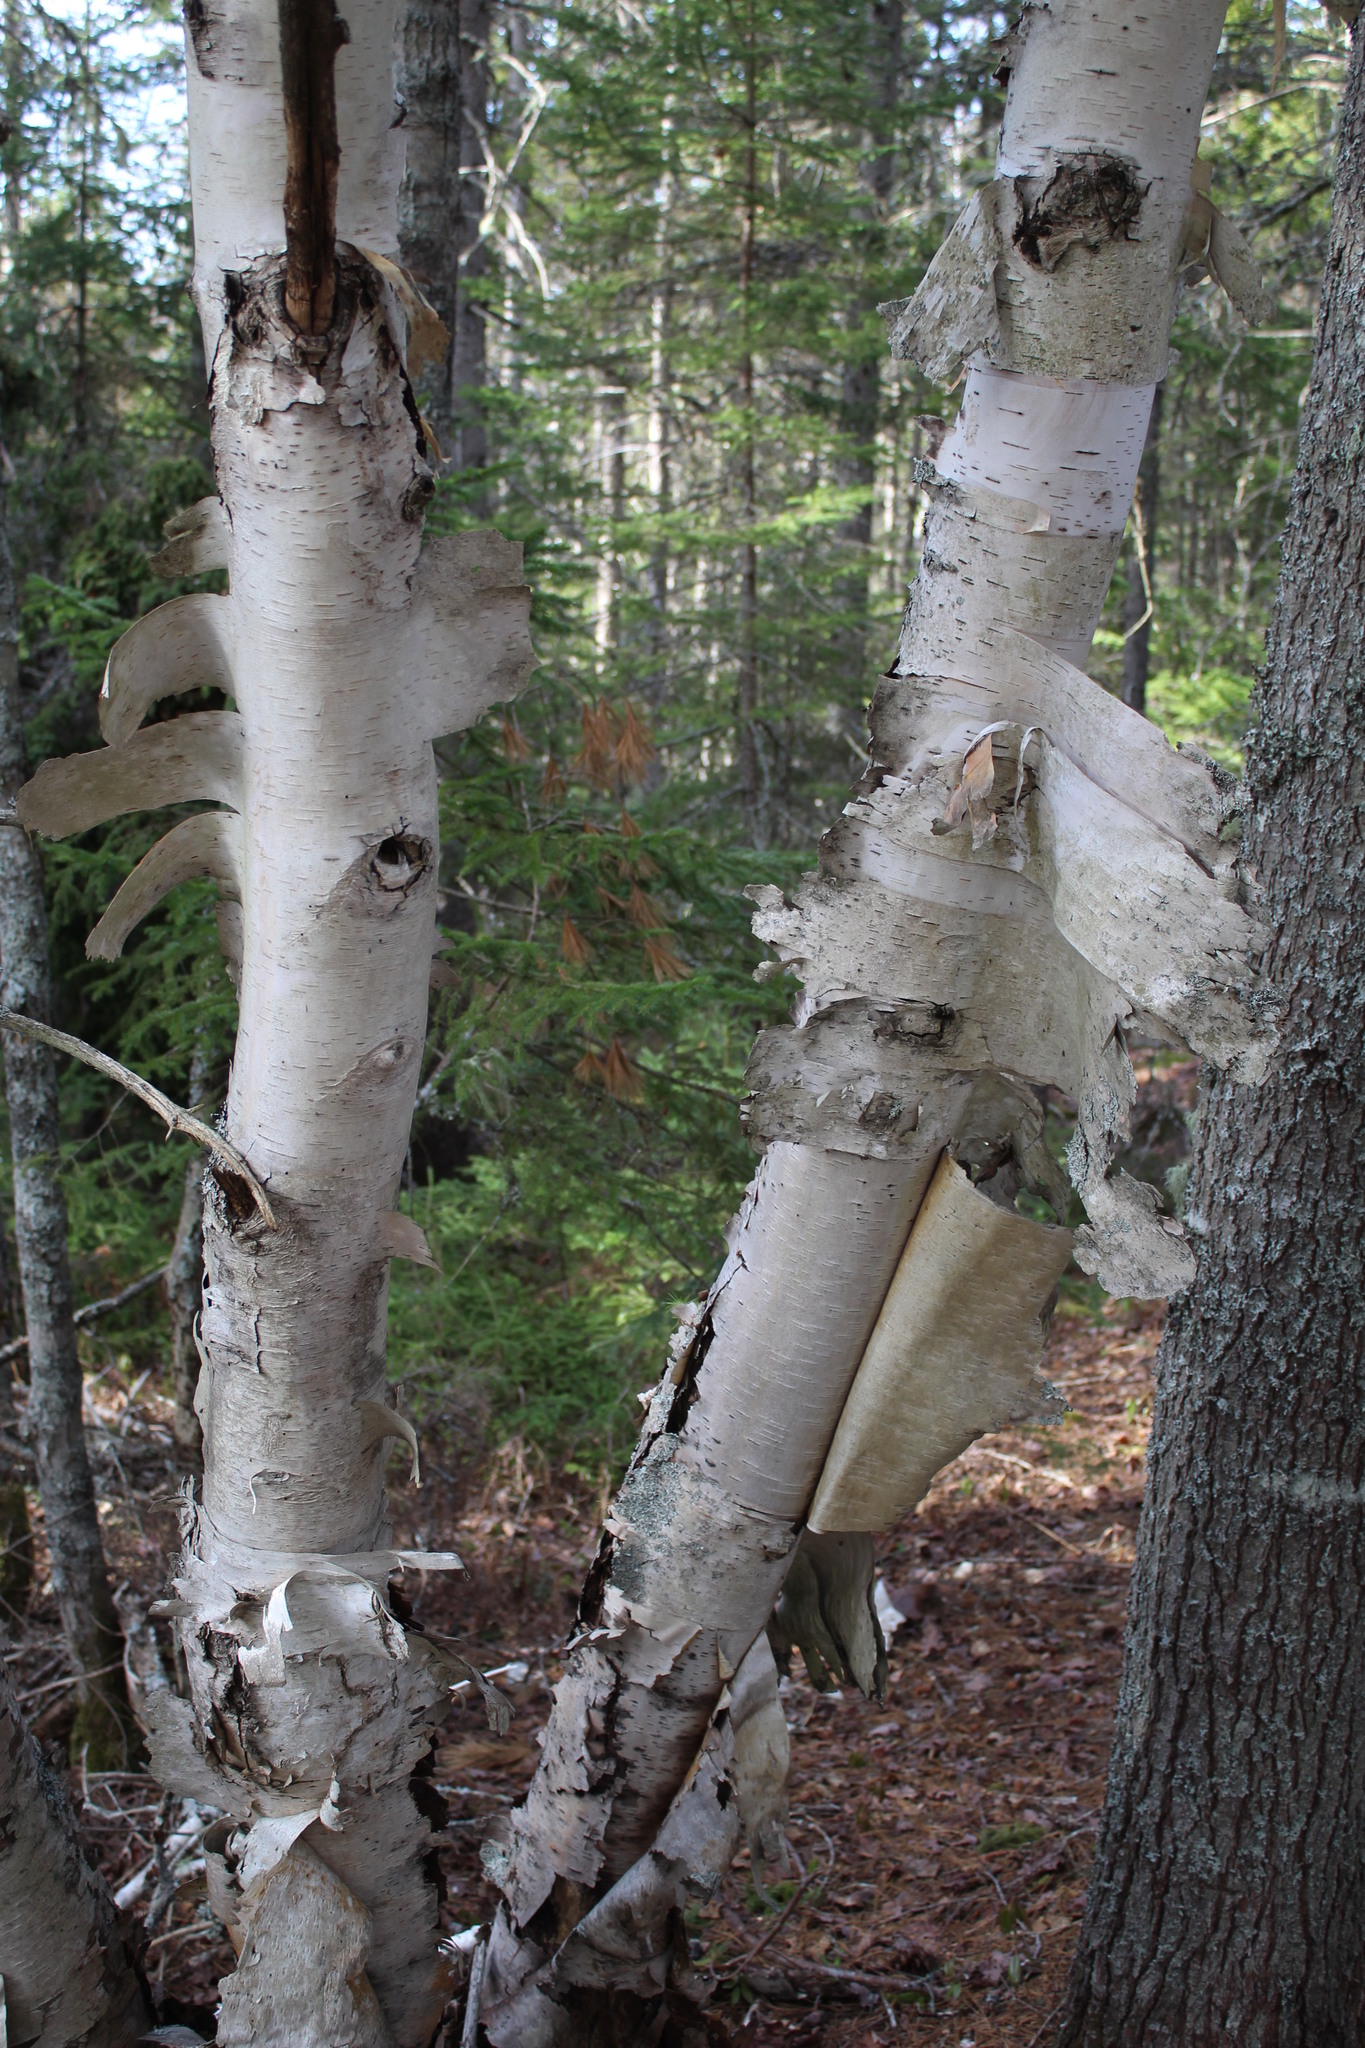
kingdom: Plantae
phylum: Tracheophyta
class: Magnoliopsida
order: Fagales
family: Betulaceae
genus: Betula
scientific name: Betula papyrifera
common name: Paper birch
